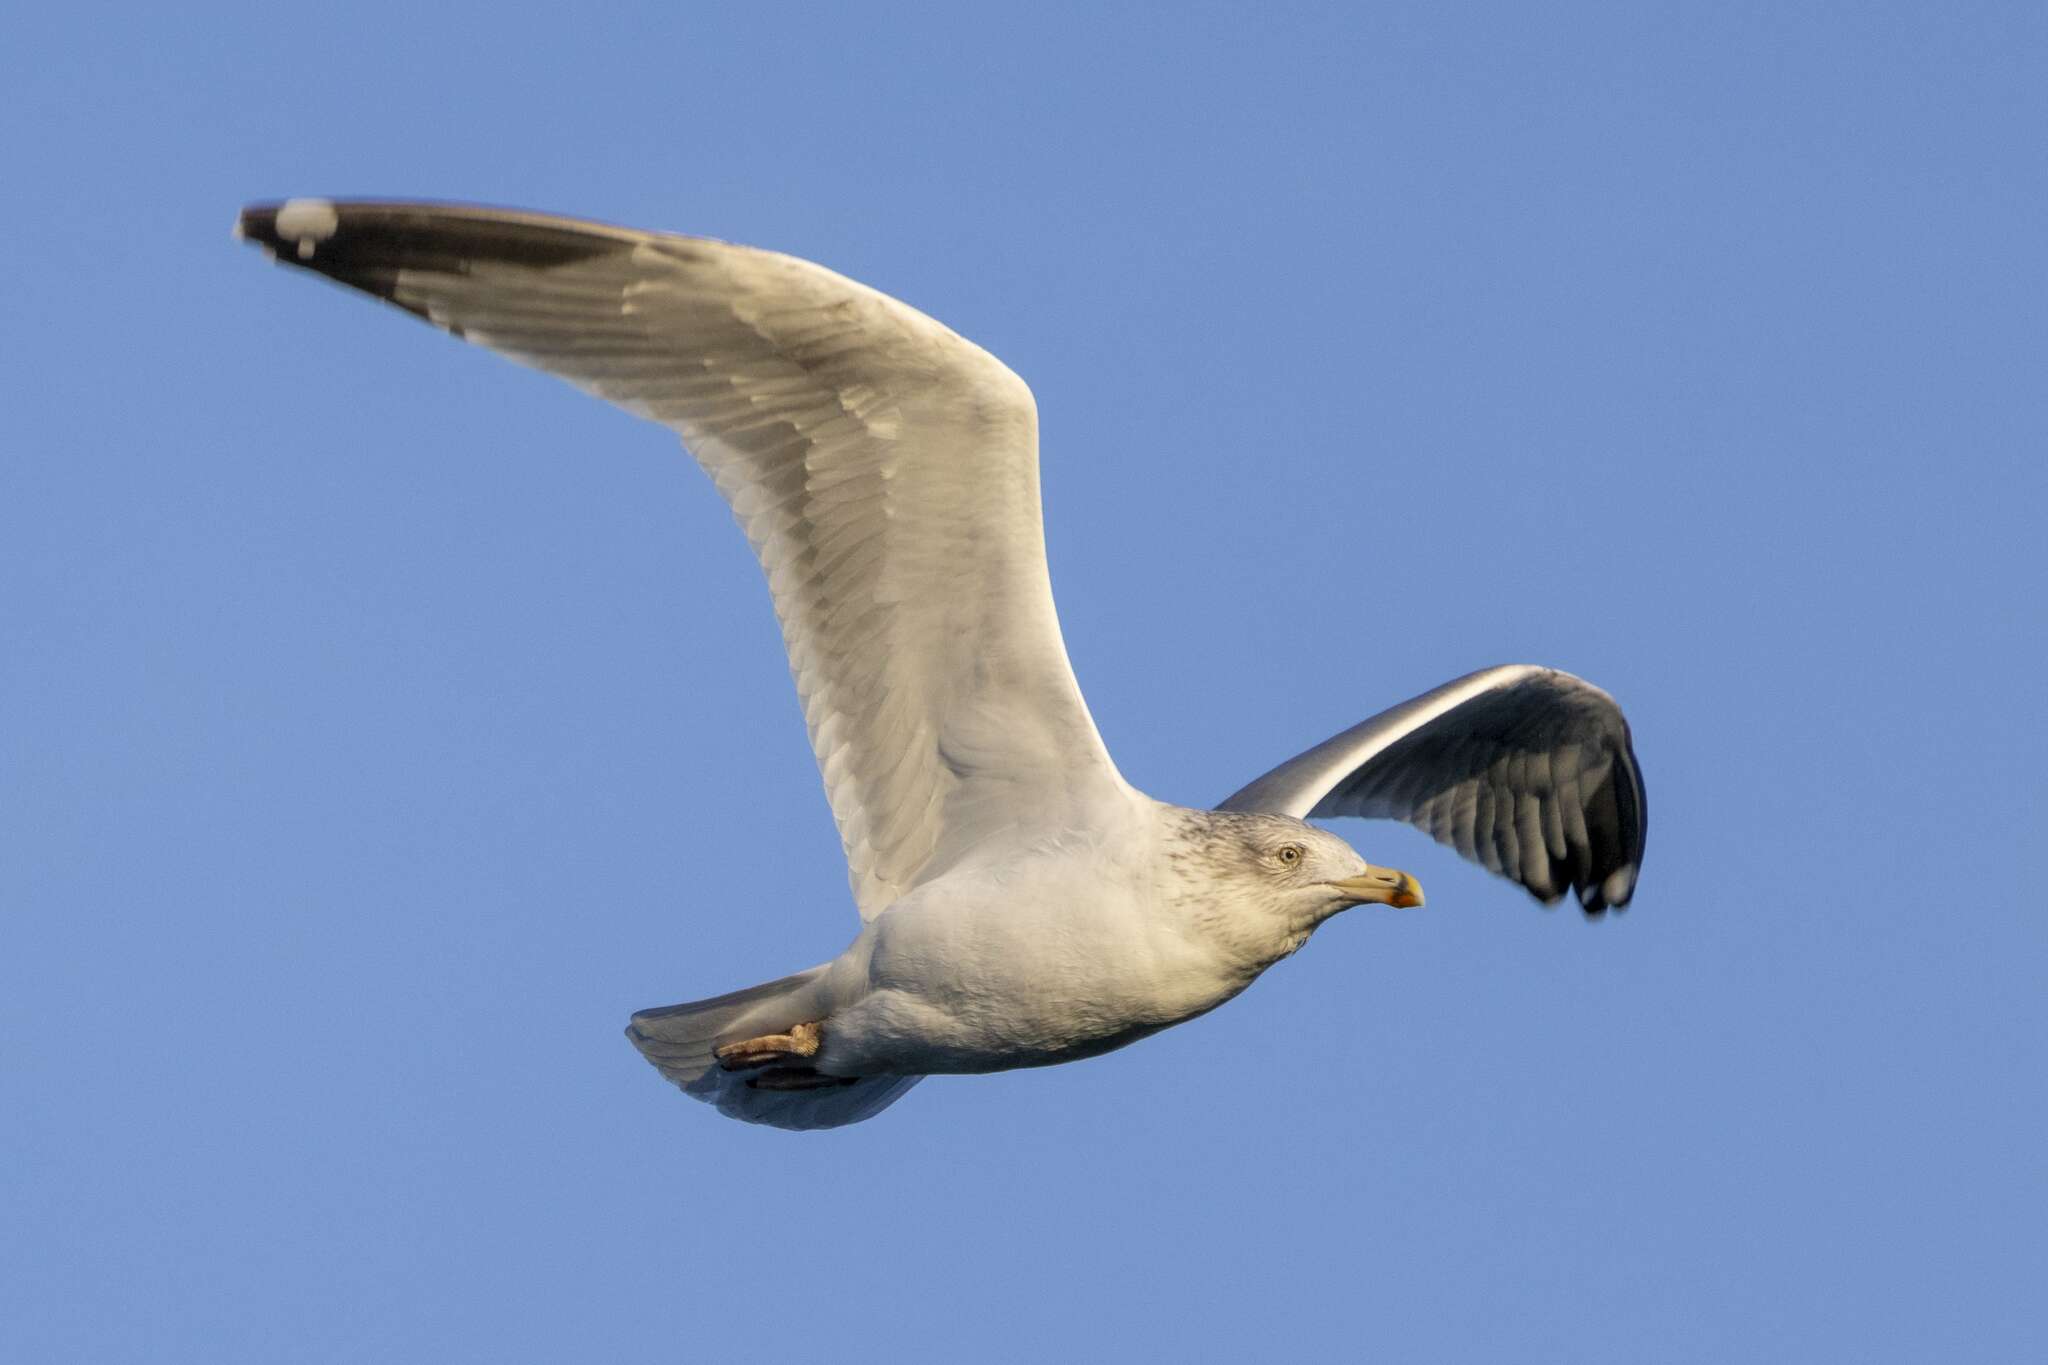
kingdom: Animalia
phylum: Chordata
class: Aves
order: Charadriiformes
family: Laridae
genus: Larus
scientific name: Larus argentatus
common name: Herring gull
